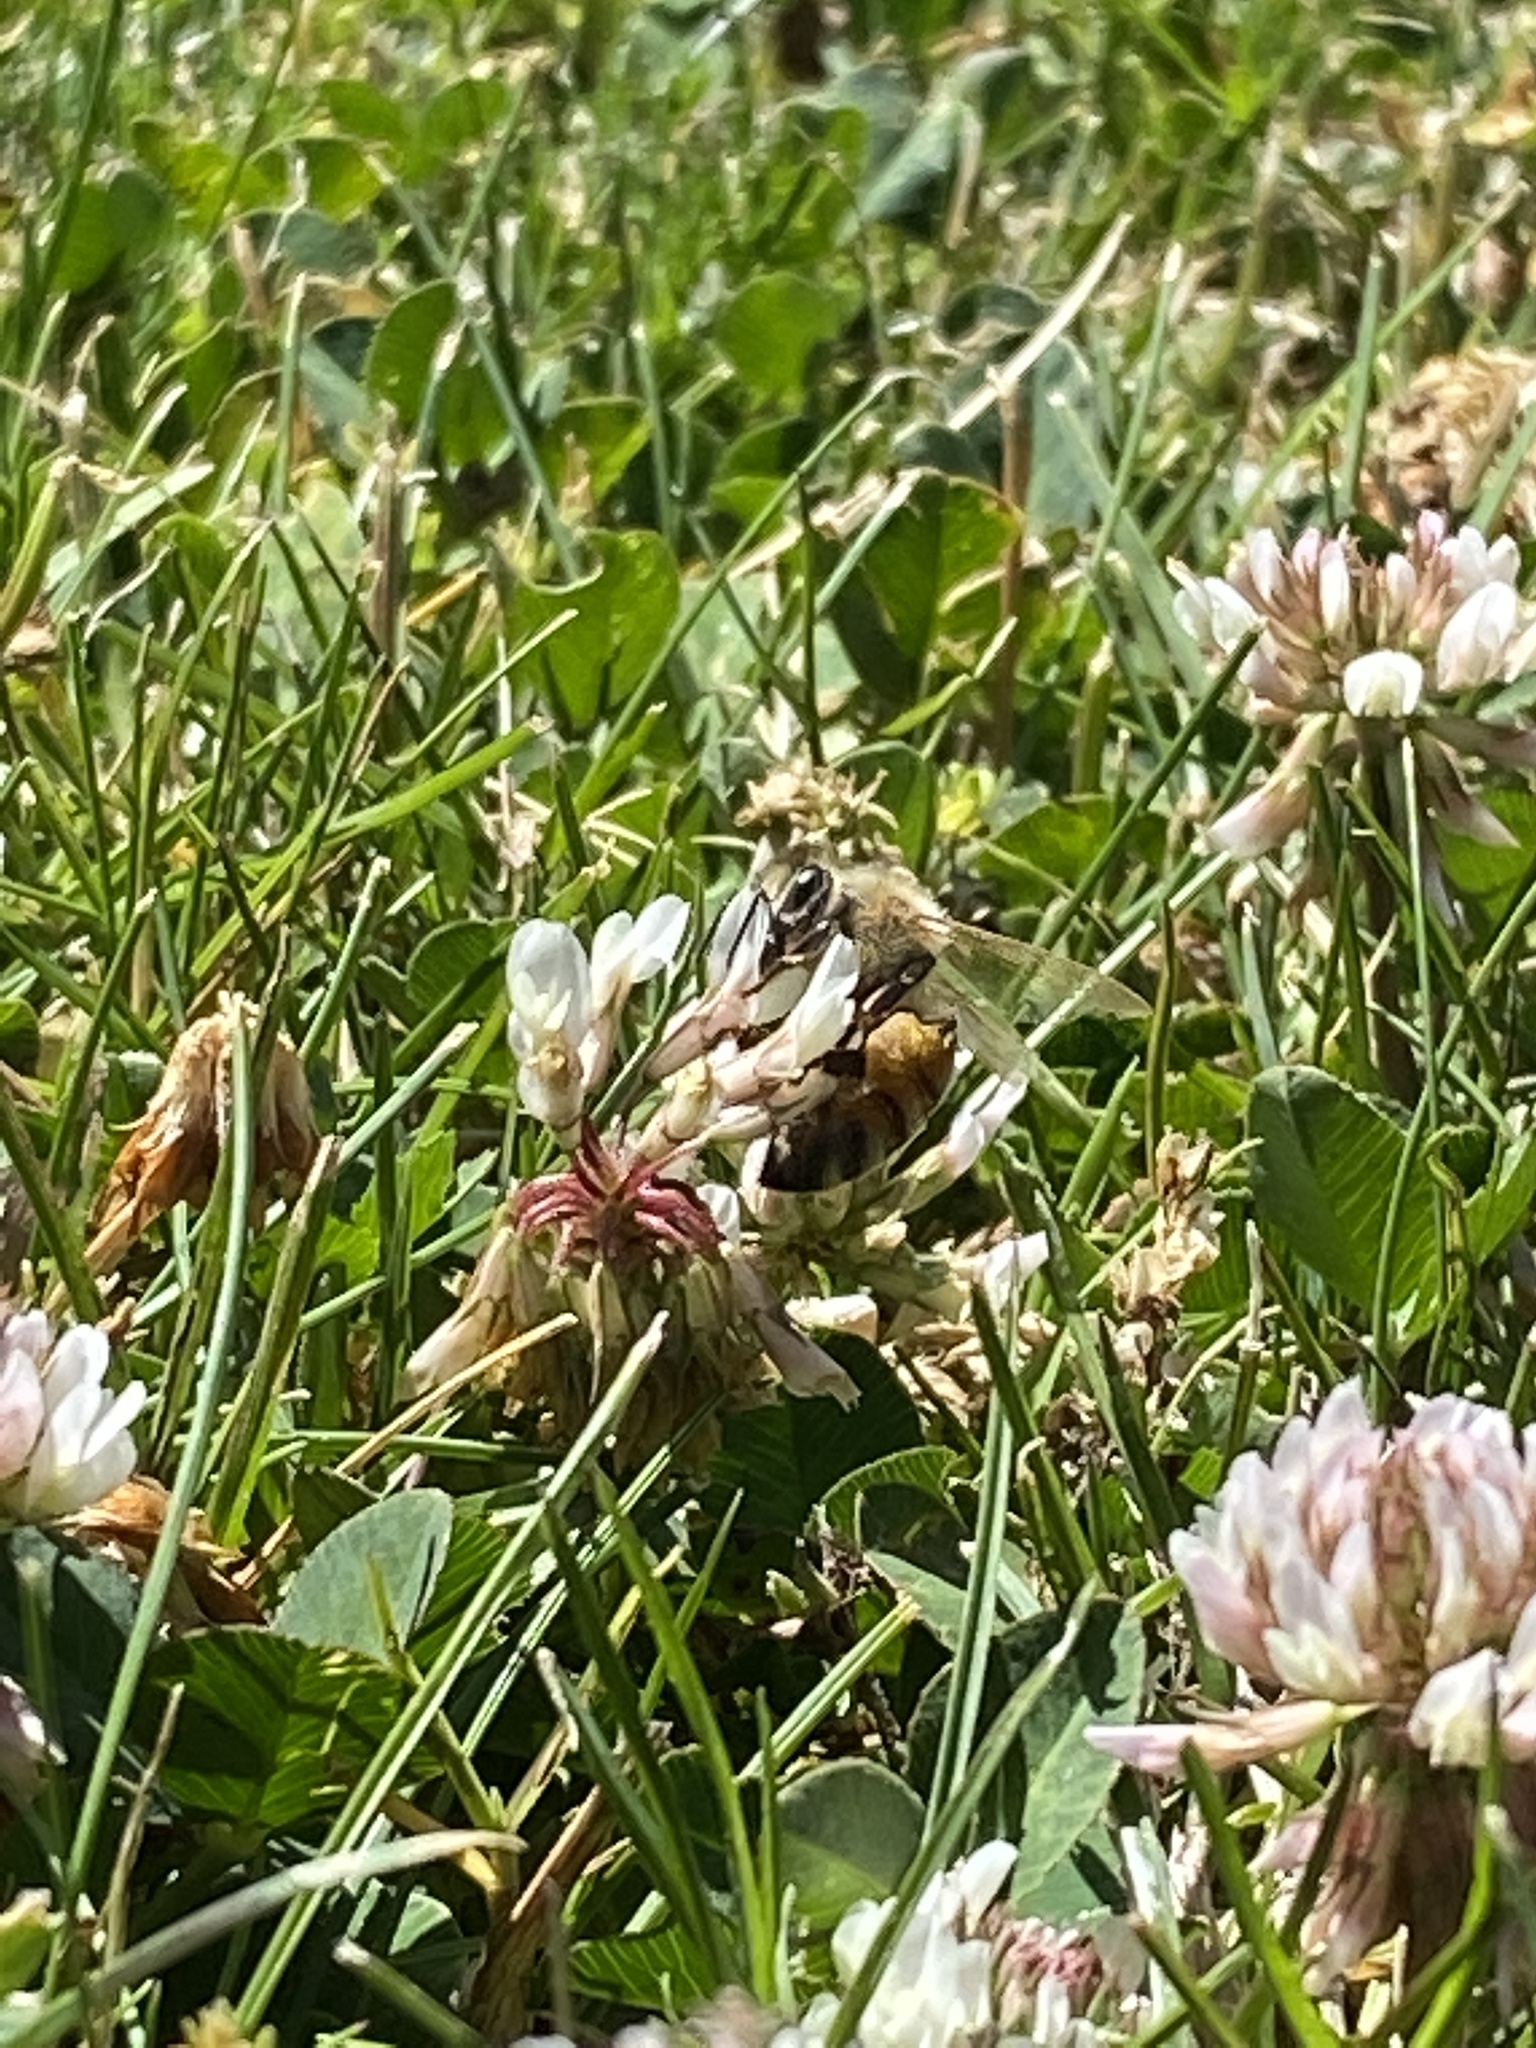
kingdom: Animalia
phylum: Arthropoda
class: Insecta
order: Hymenoptera
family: Apidae
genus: Apis
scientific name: Apis mellifera
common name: Honey bee
